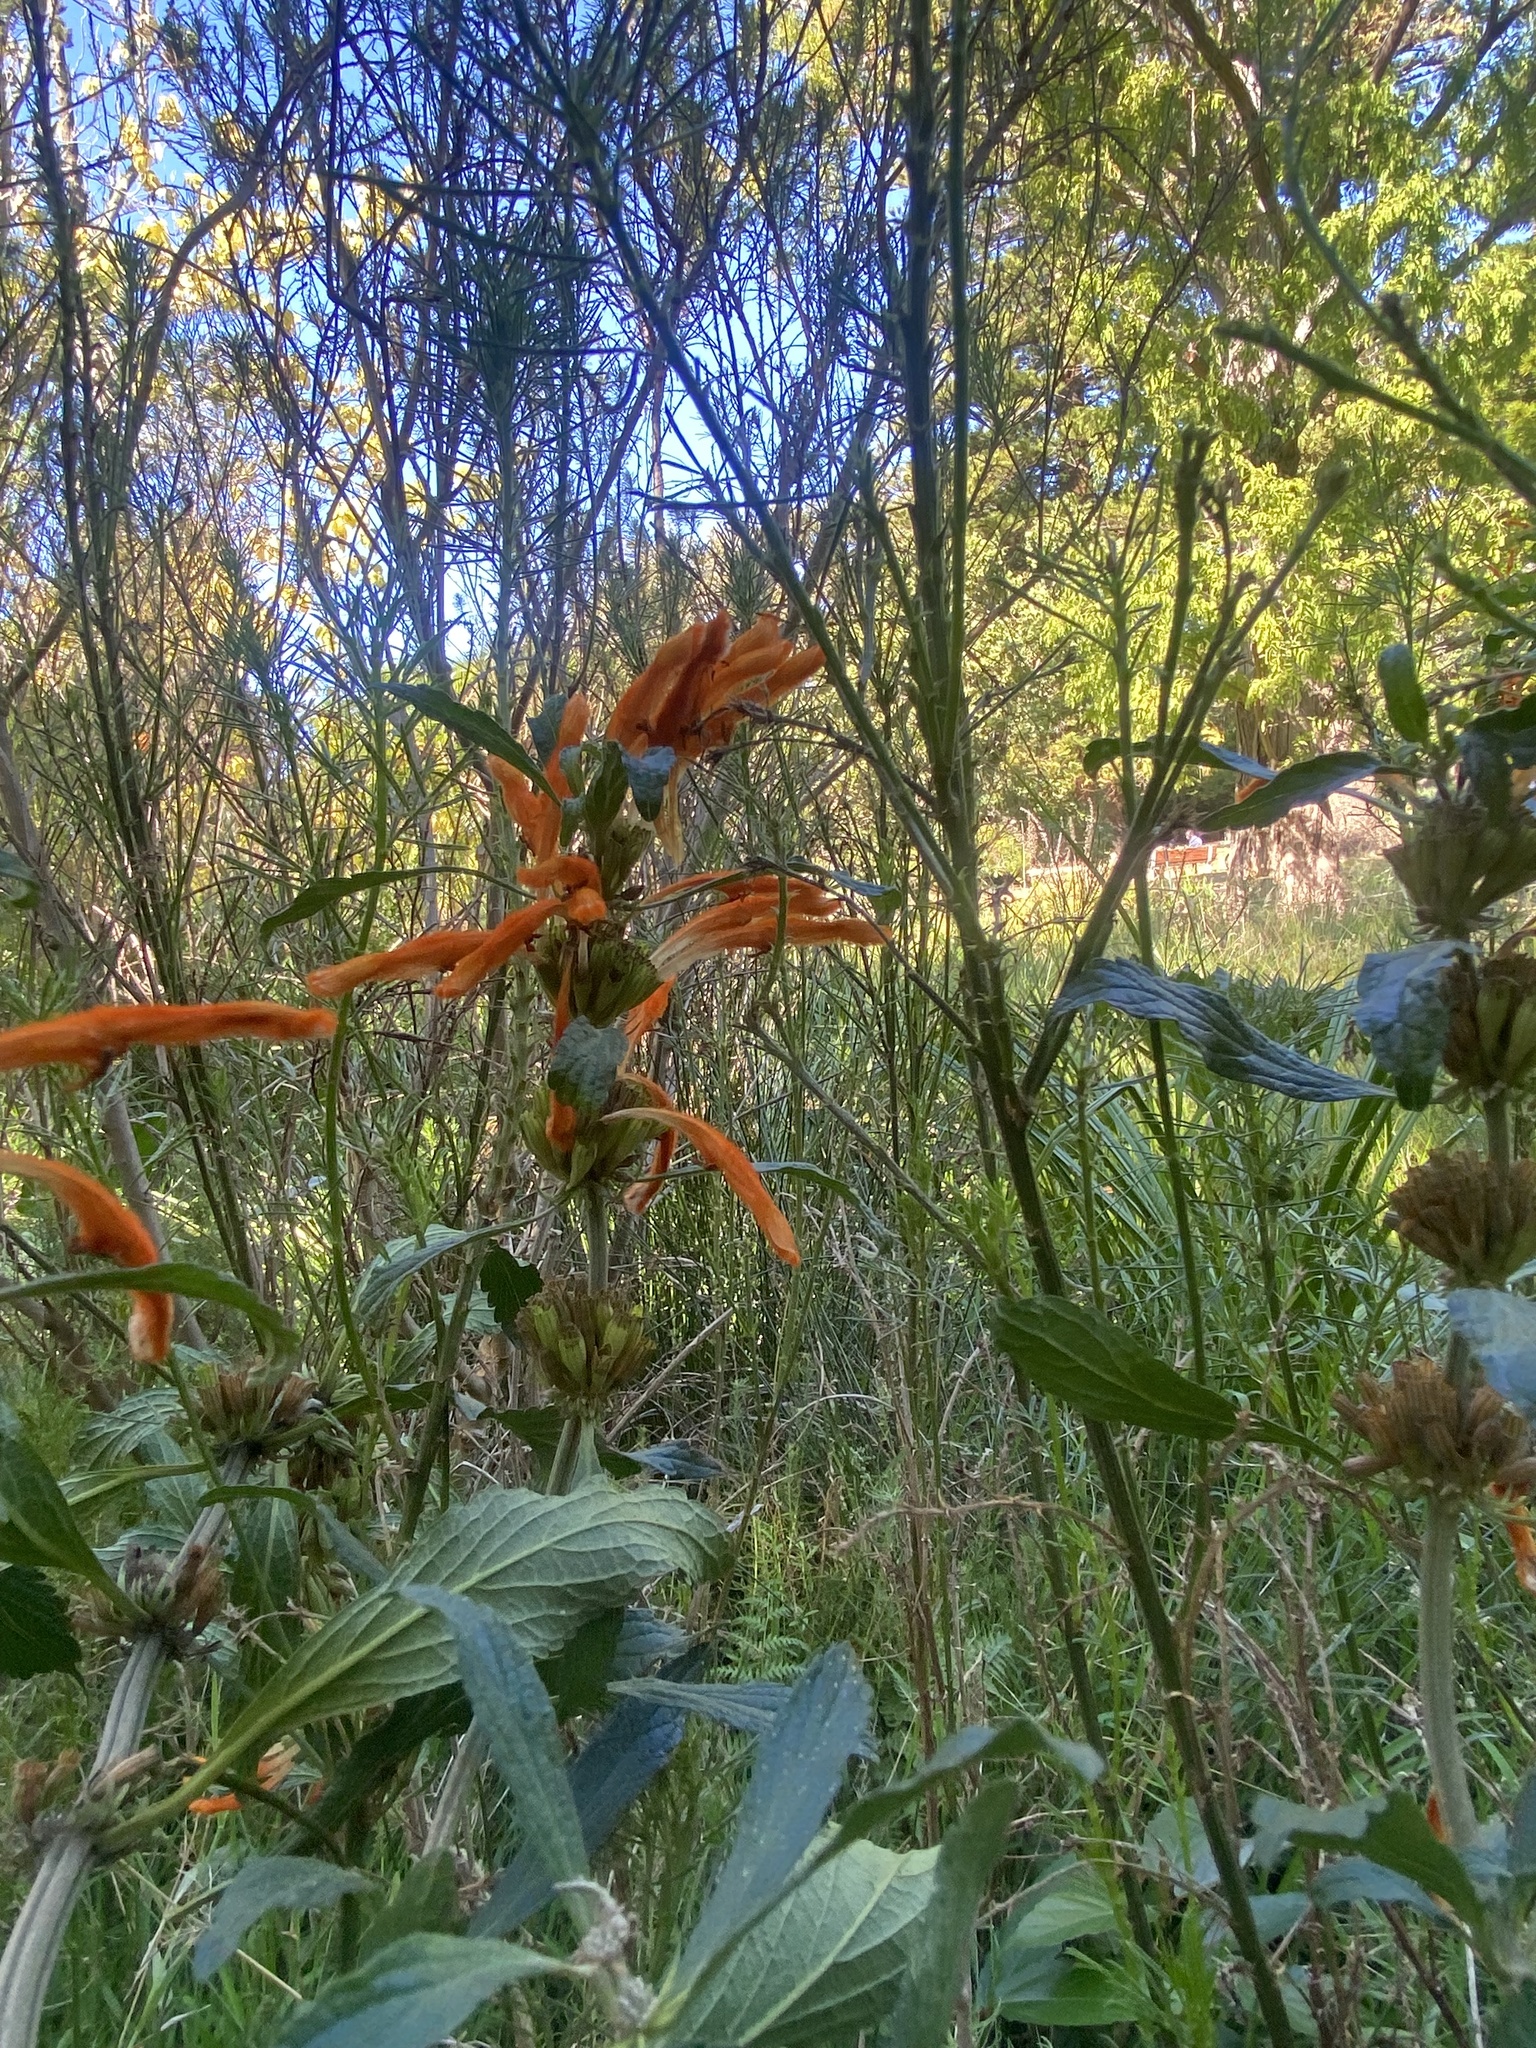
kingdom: Plantae
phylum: Tracheophyta
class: Magnoliopsida
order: Lamiales
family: Lamiaceae
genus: Leonotis
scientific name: Leonotis leonurus
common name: Lion's ear
